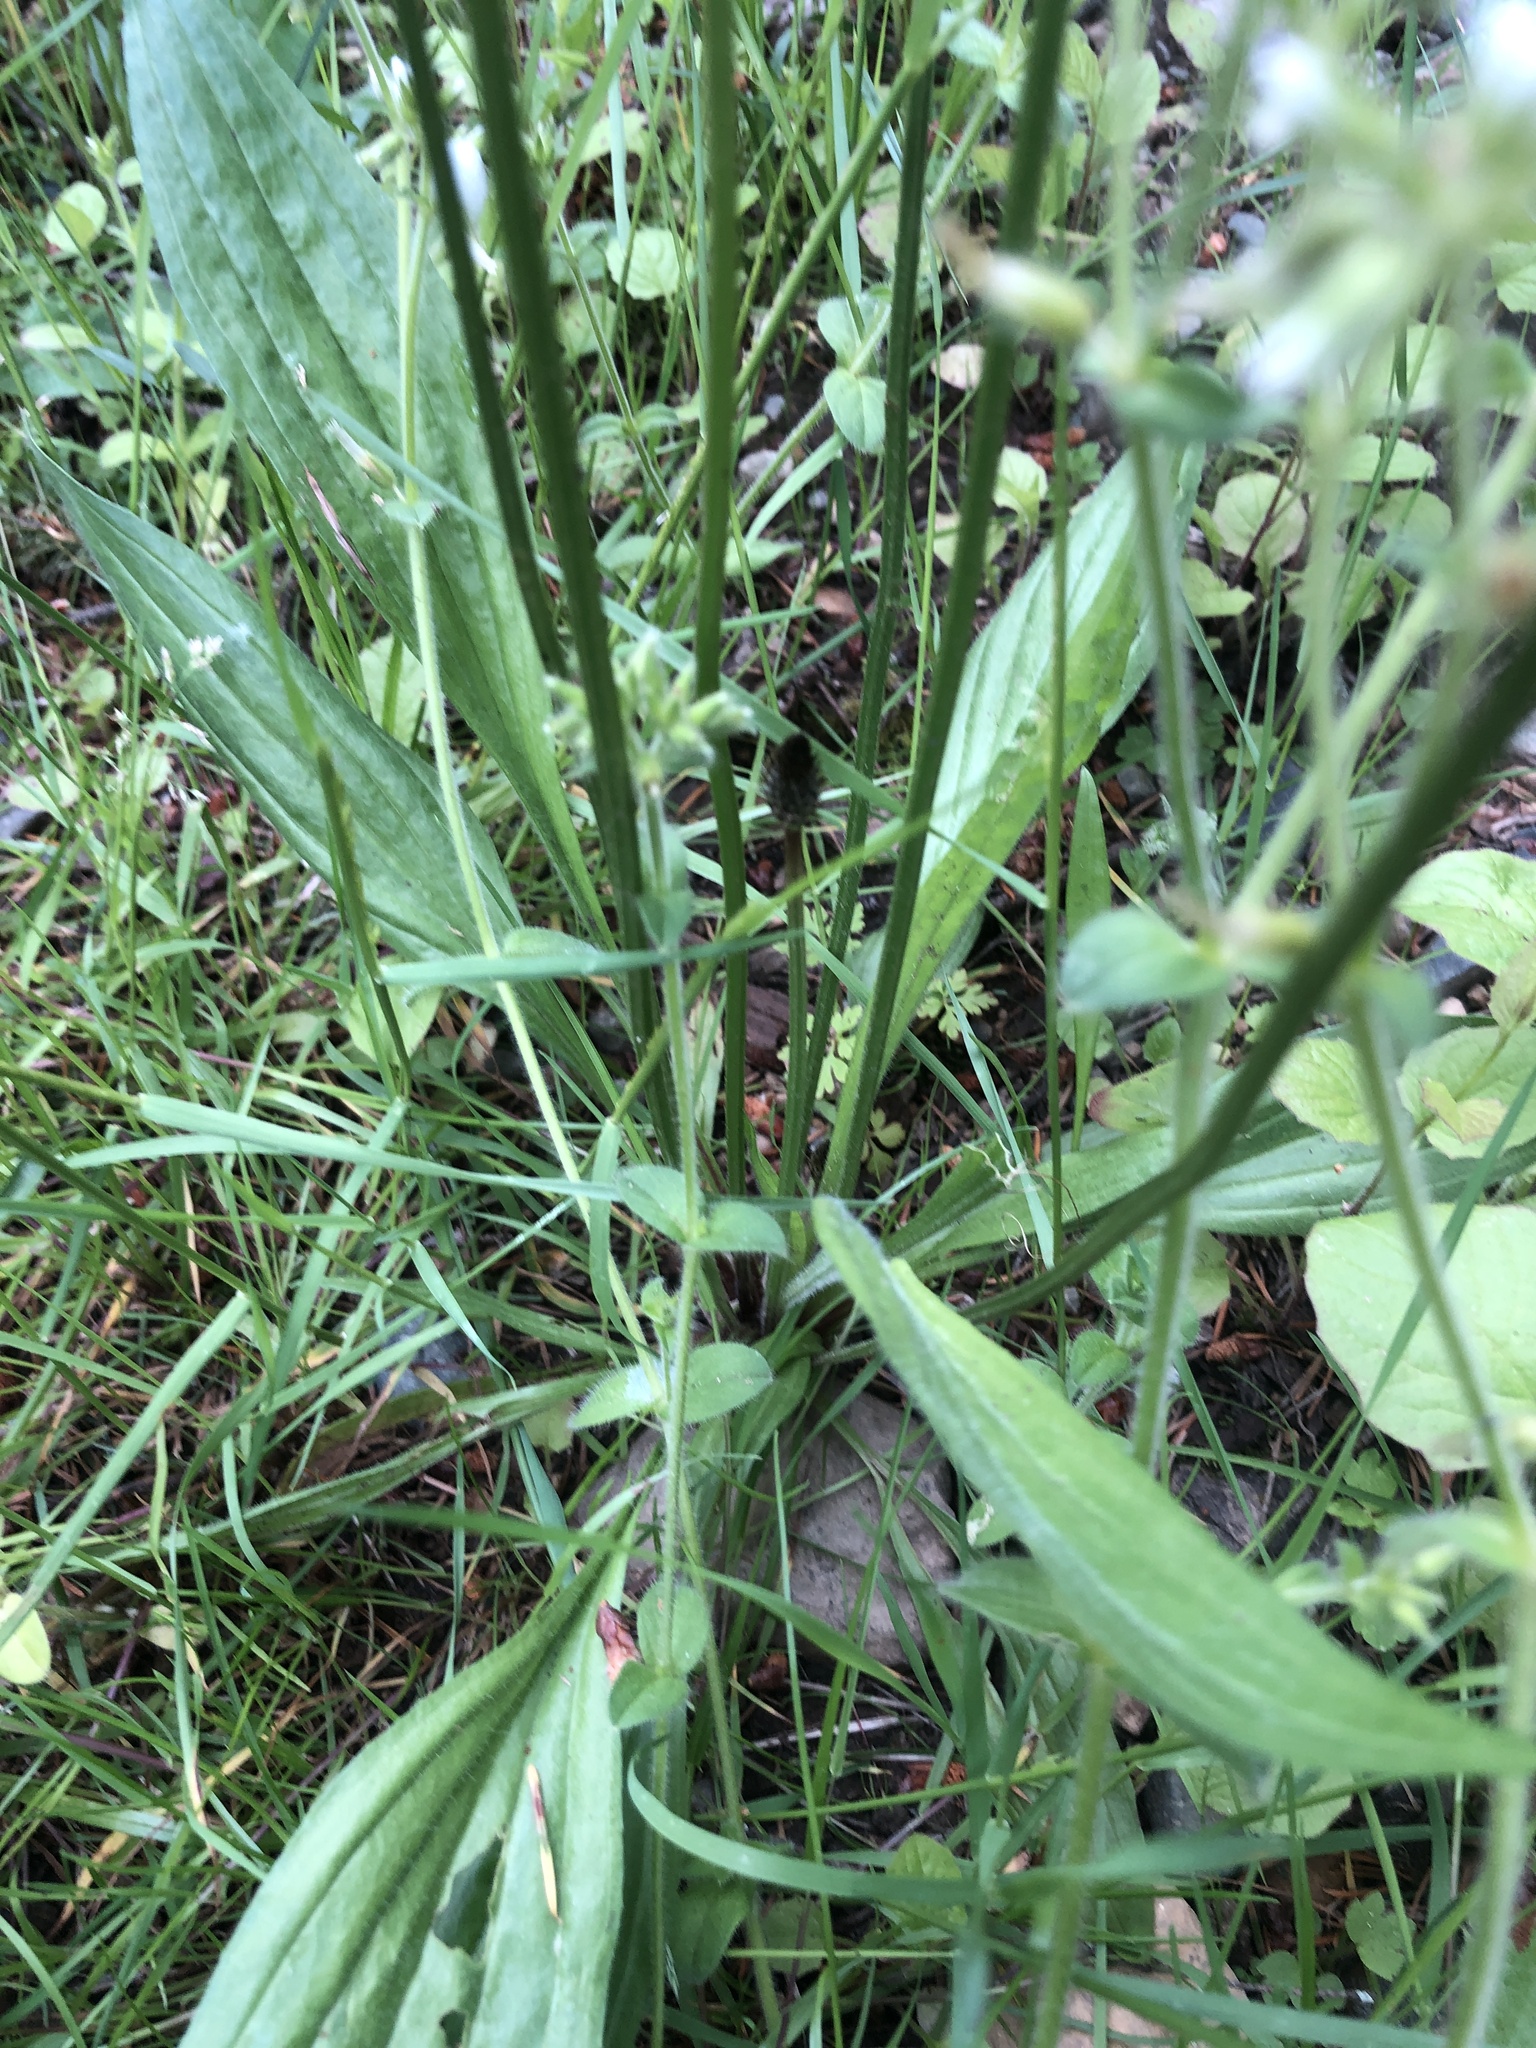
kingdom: Plantae
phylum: Tracheophyta
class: Magnoliopsida
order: Lamiales
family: Plantaginaceae
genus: Plantago
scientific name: Plantago lanceolata
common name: Ribwort plantain
